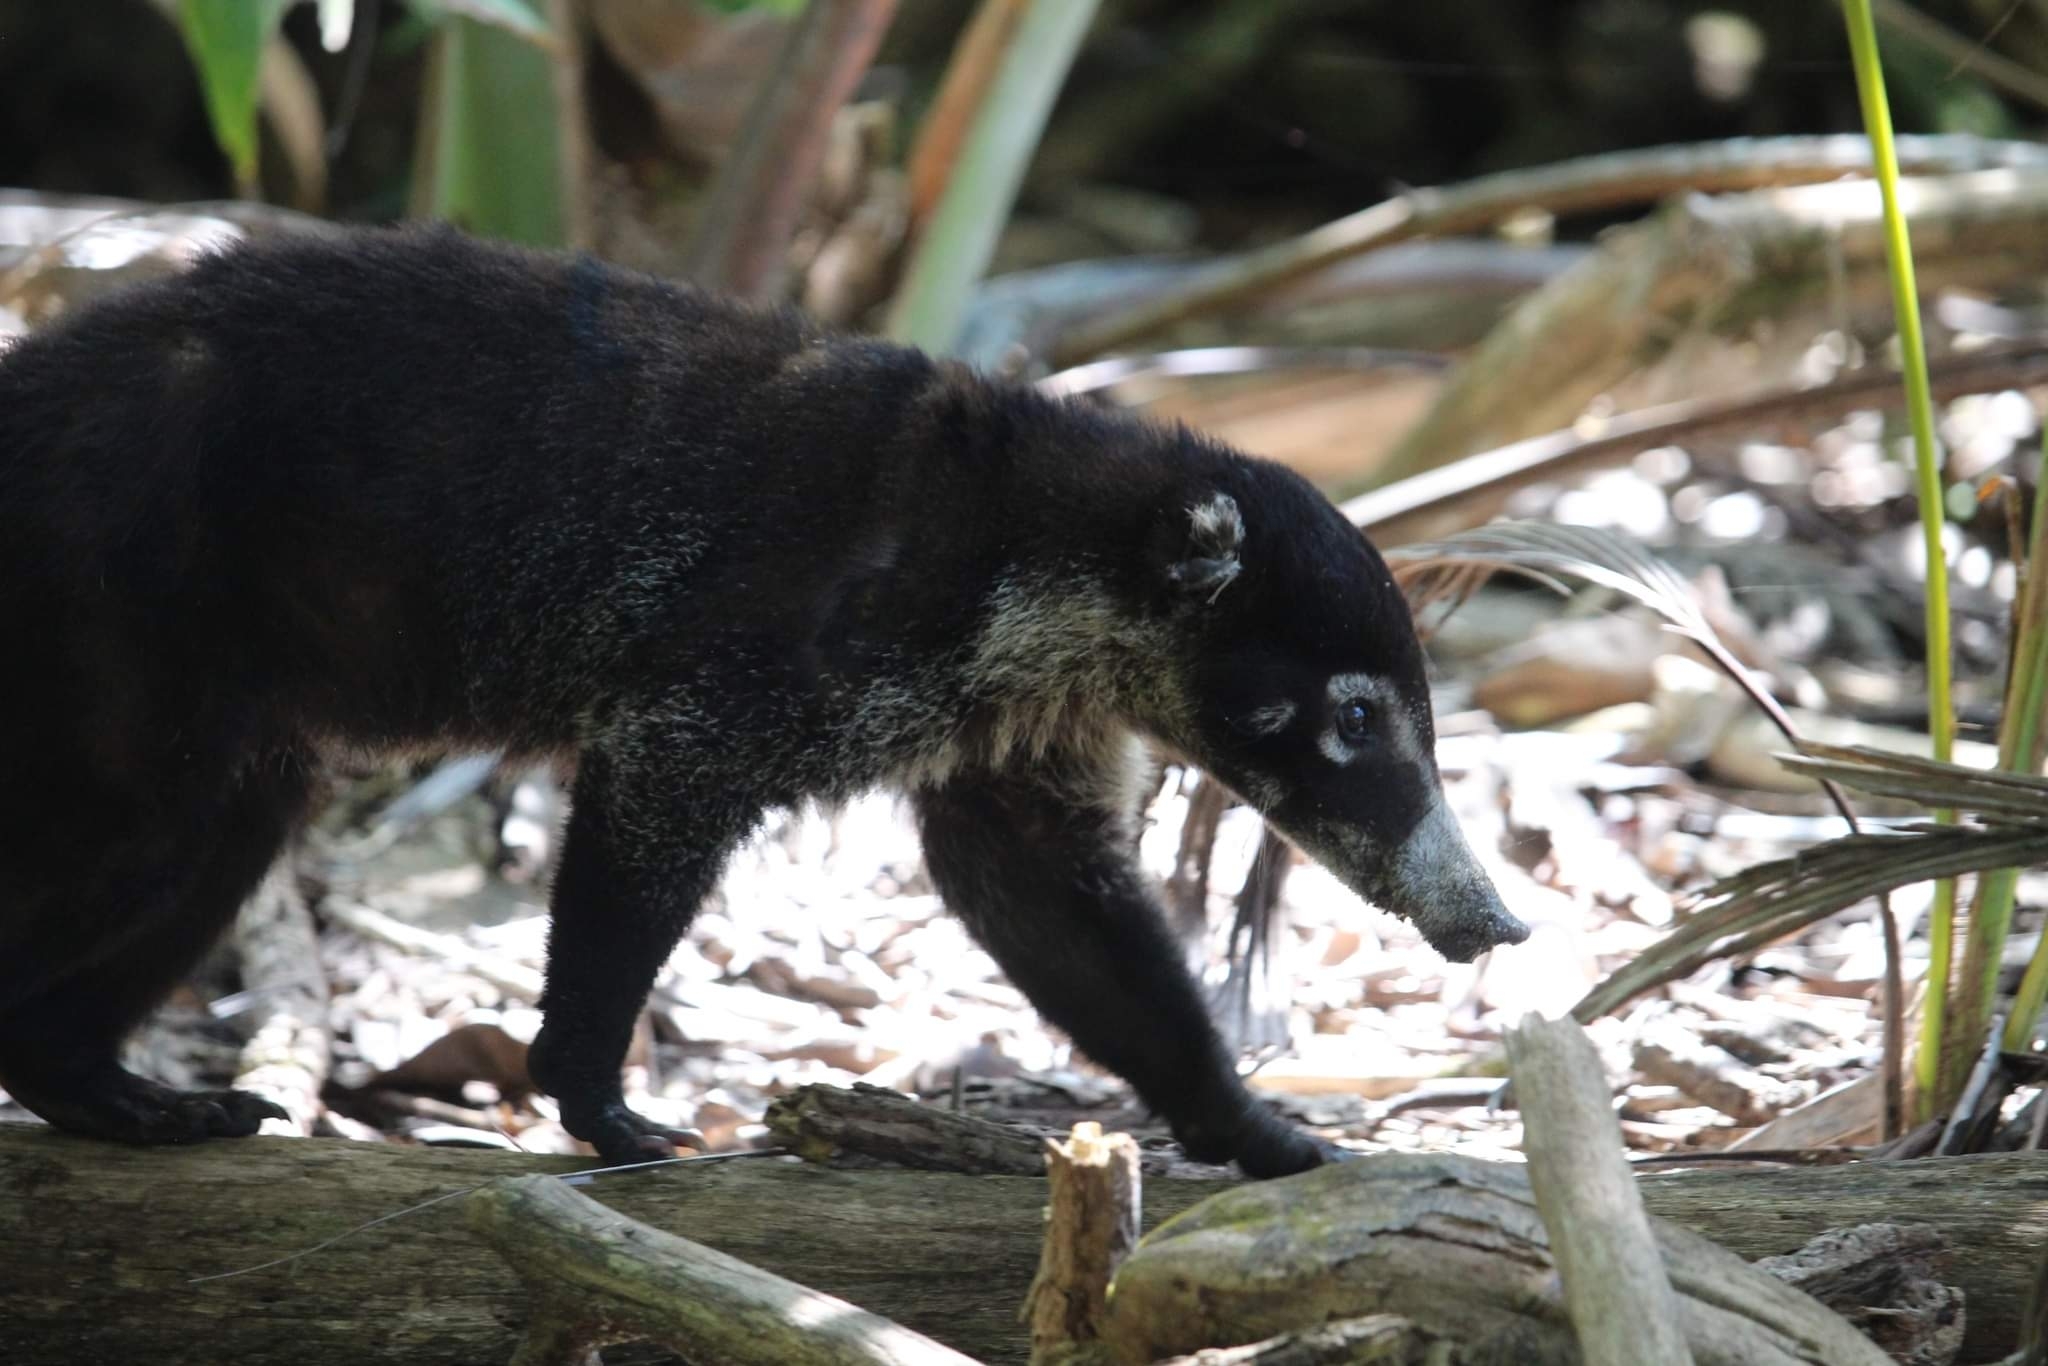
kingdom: Animalia
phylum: Chordata
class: Mammalia
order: Carnivora
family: Procyonidae
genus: Nasua
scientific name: Nasua narica
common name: White-nosed coati
